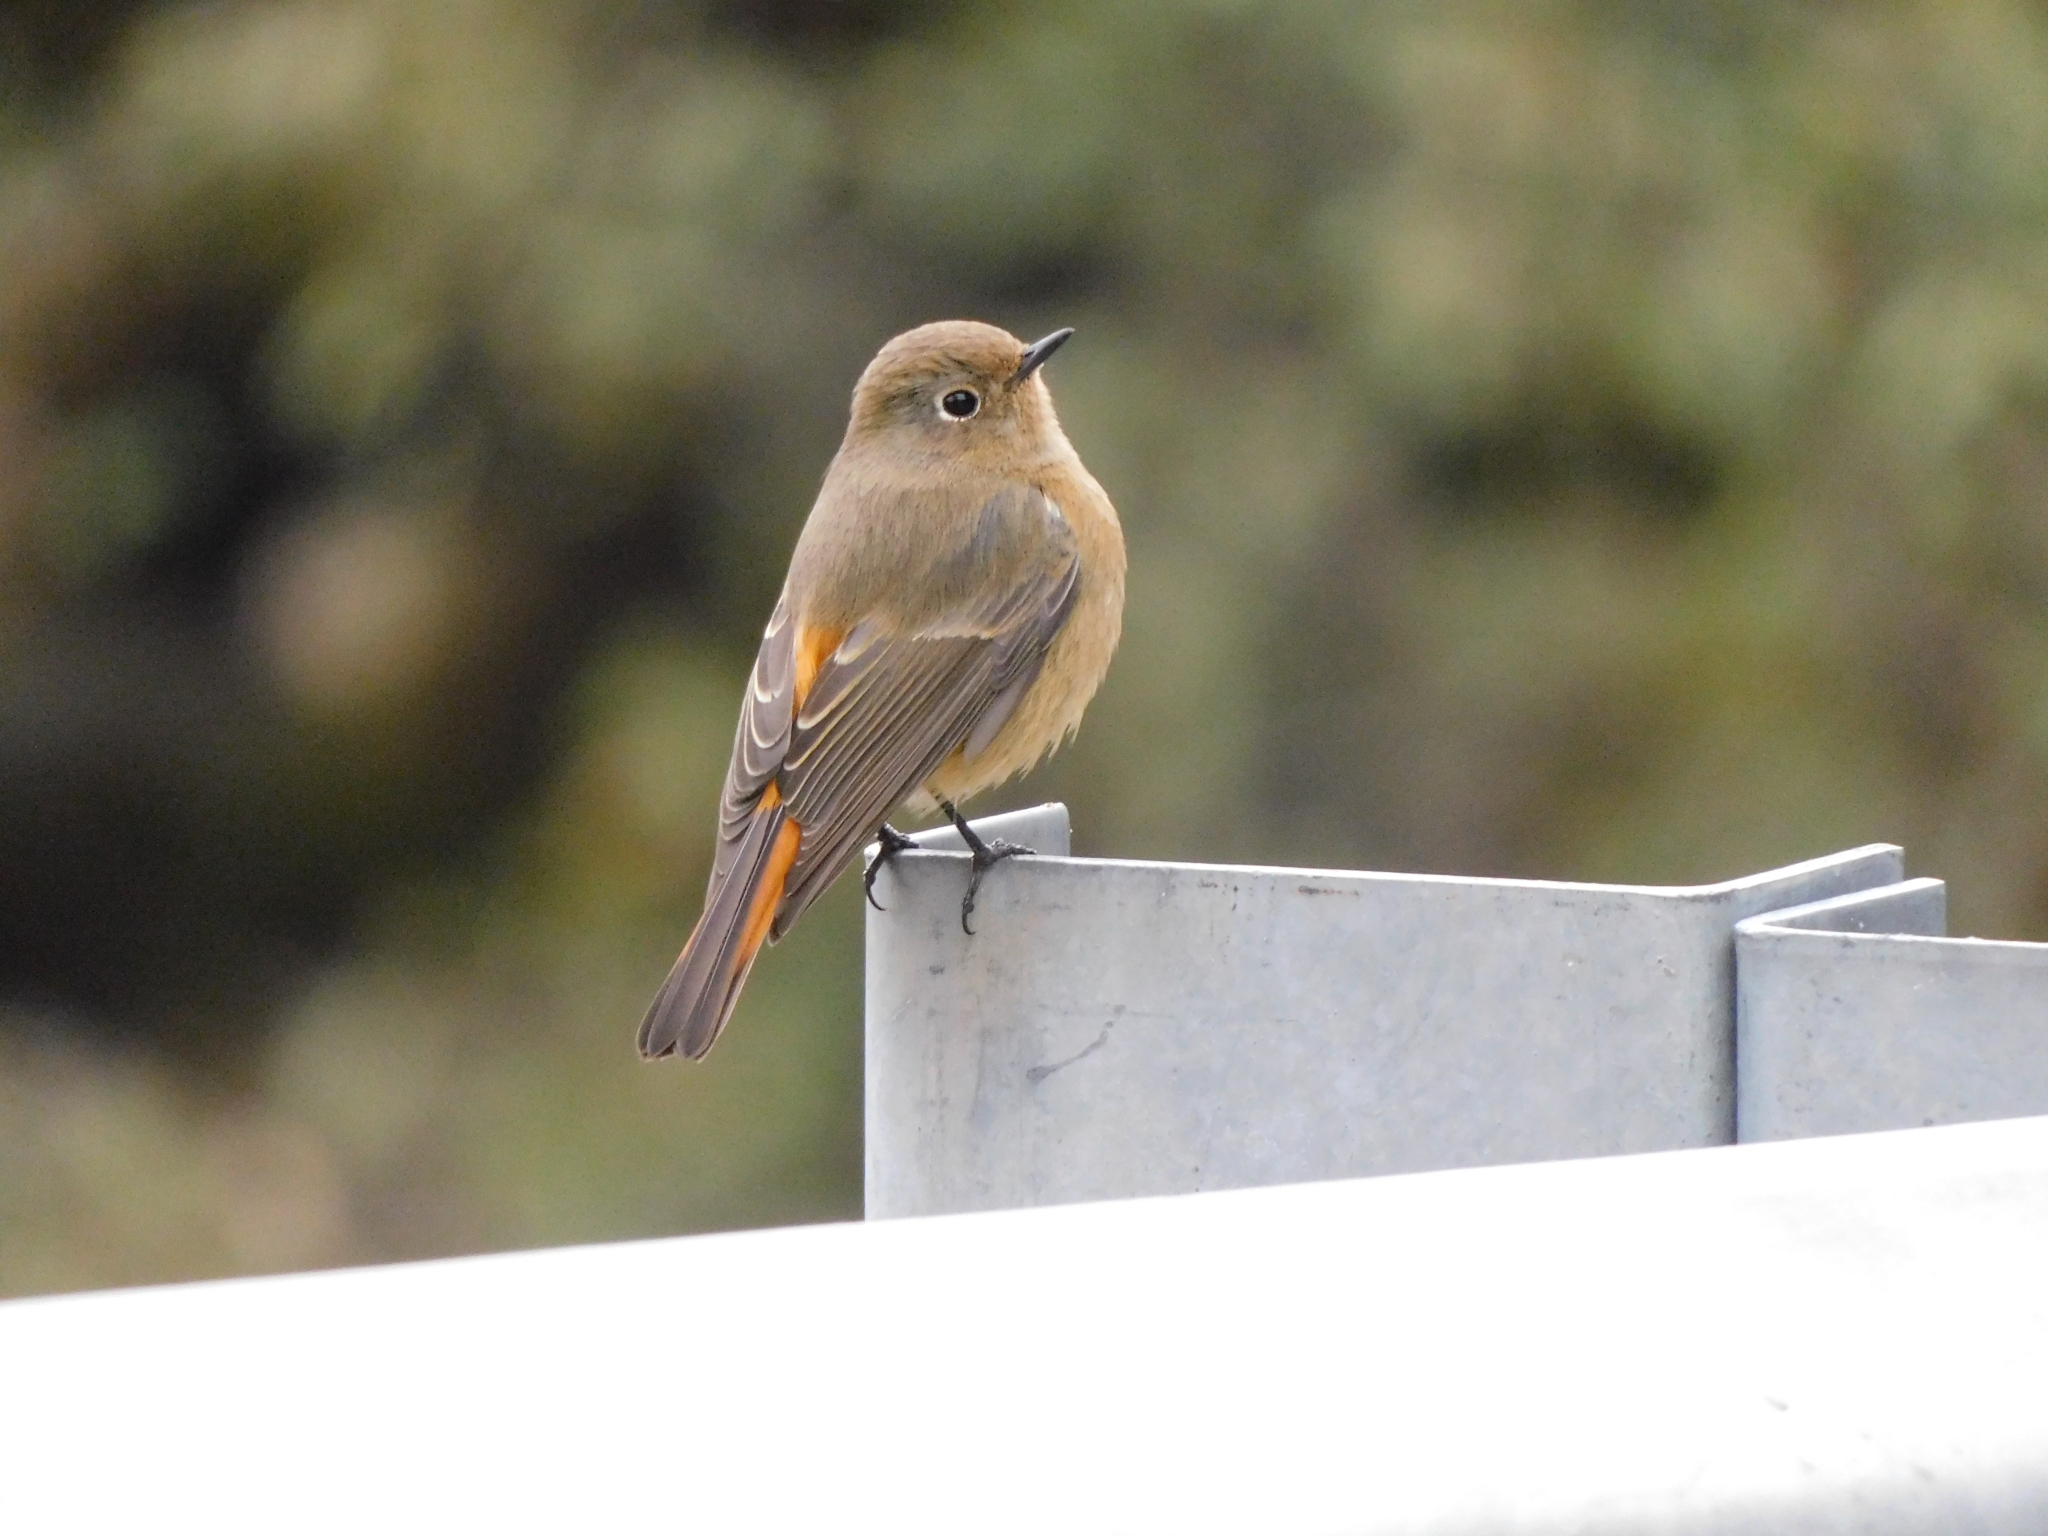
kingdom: Animalia
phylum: Chordata
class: Aves
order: Passeriformes
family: Muscicapidae
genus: Phoenicurus
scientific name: Phoenicurus frontalis
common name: Blue-fronted redstart
